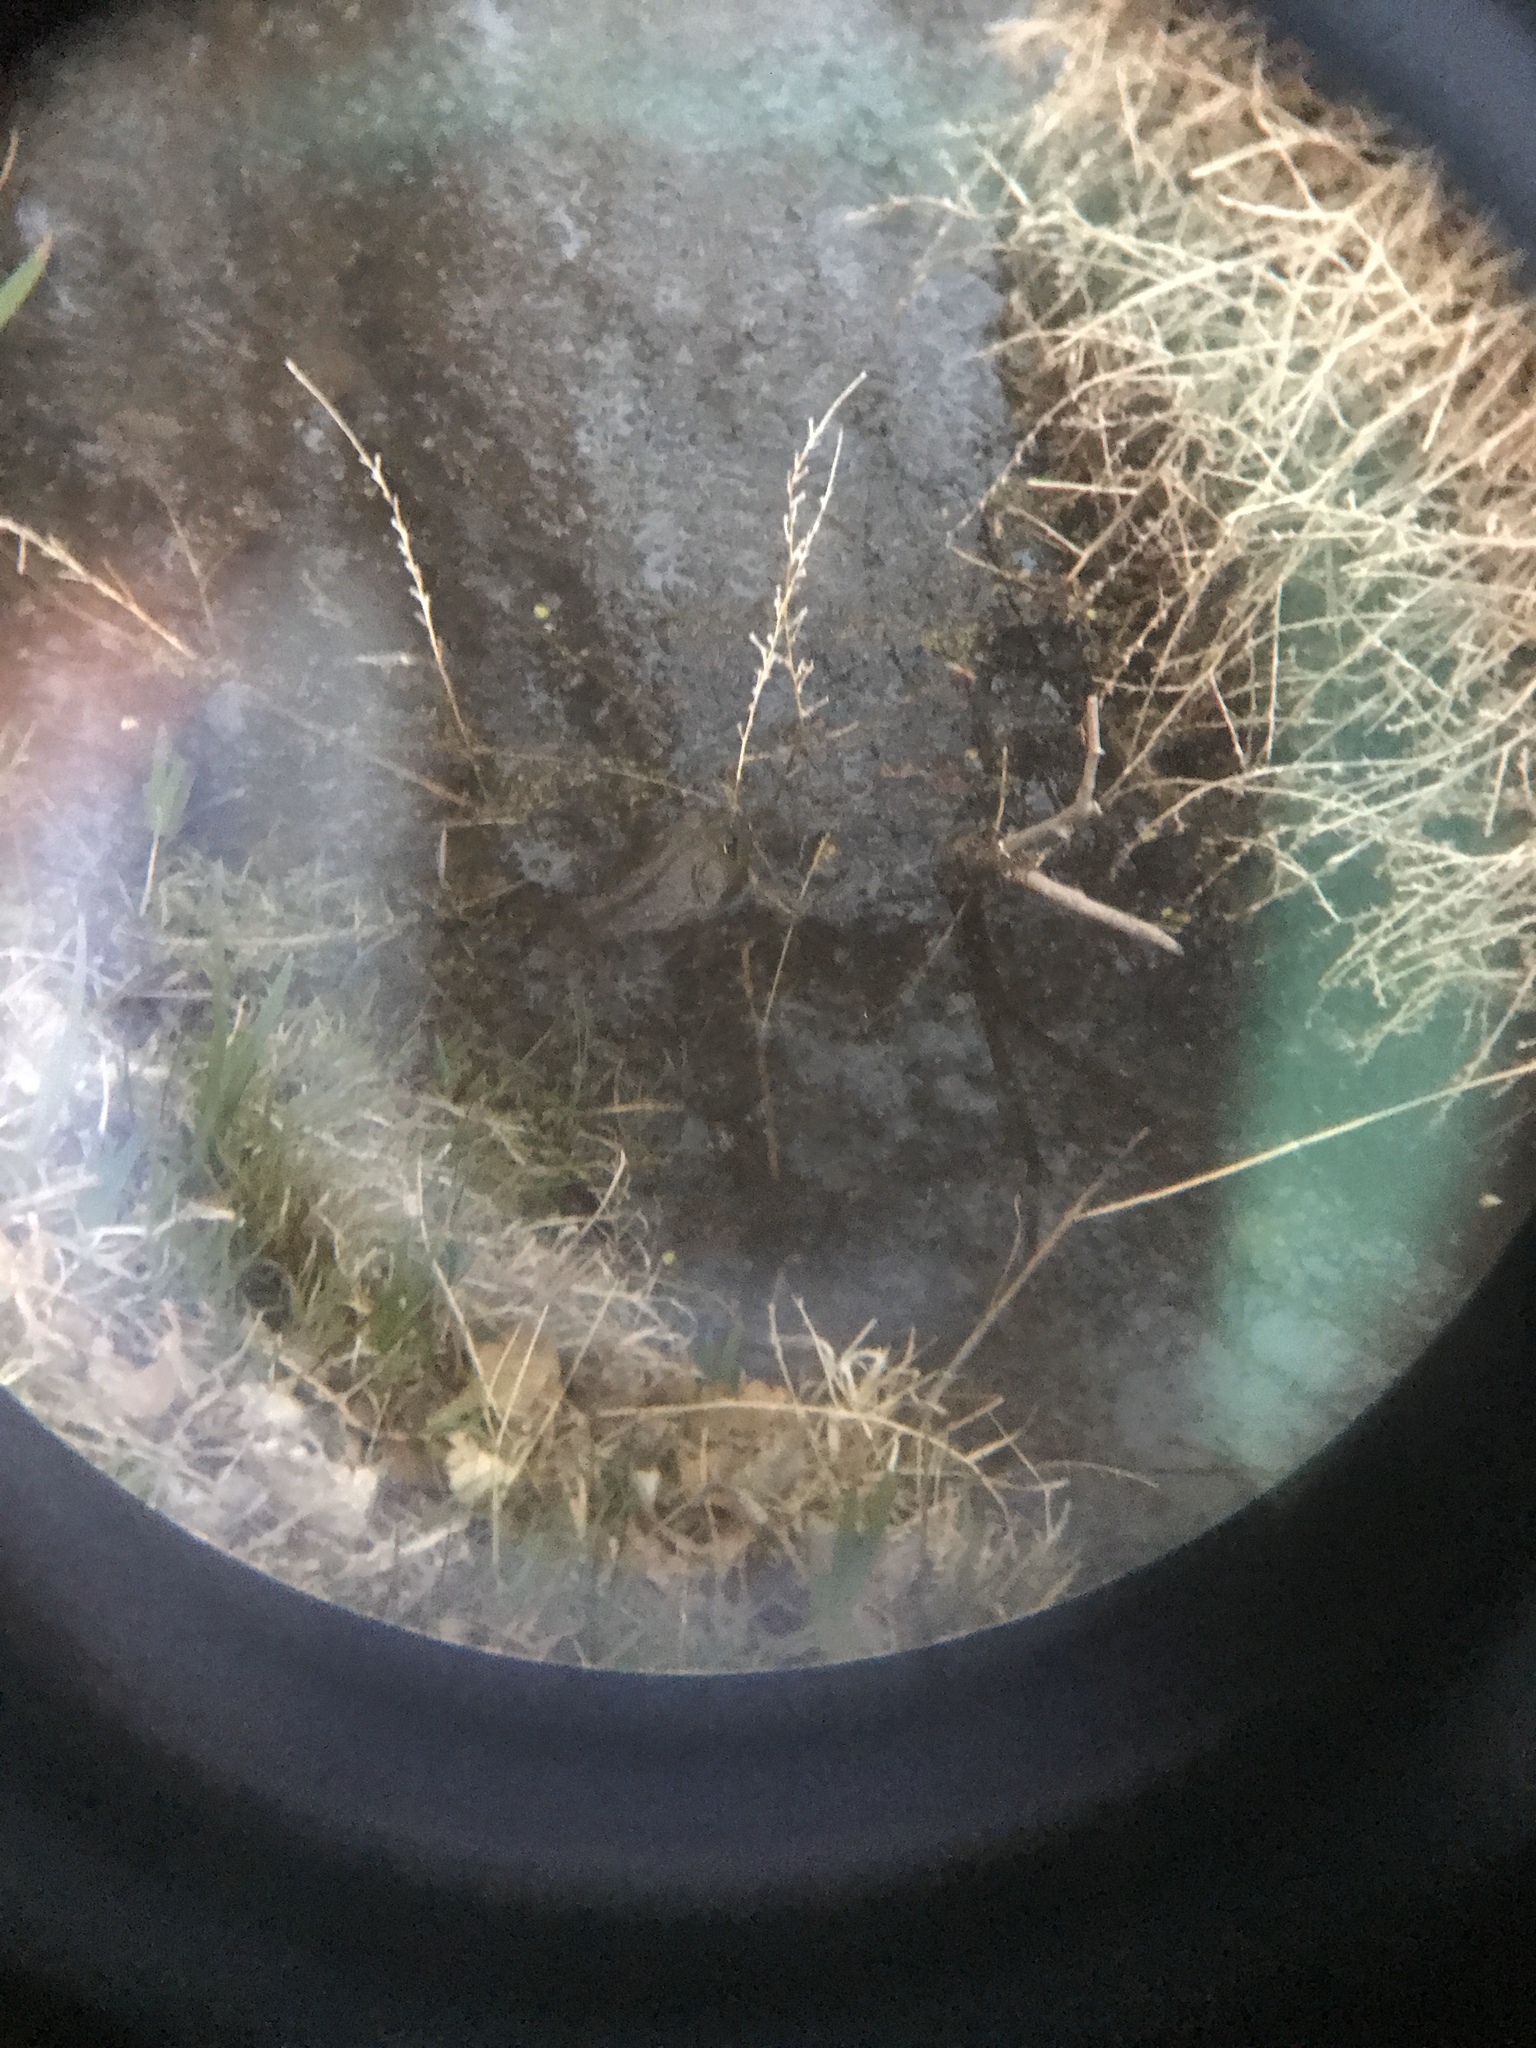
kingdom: Animalia
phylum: Chordata
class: Amphibia
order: Anura
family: Ranidae
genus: Lithobates
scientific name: Lithobates catesbeianus
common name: American bullfrog
